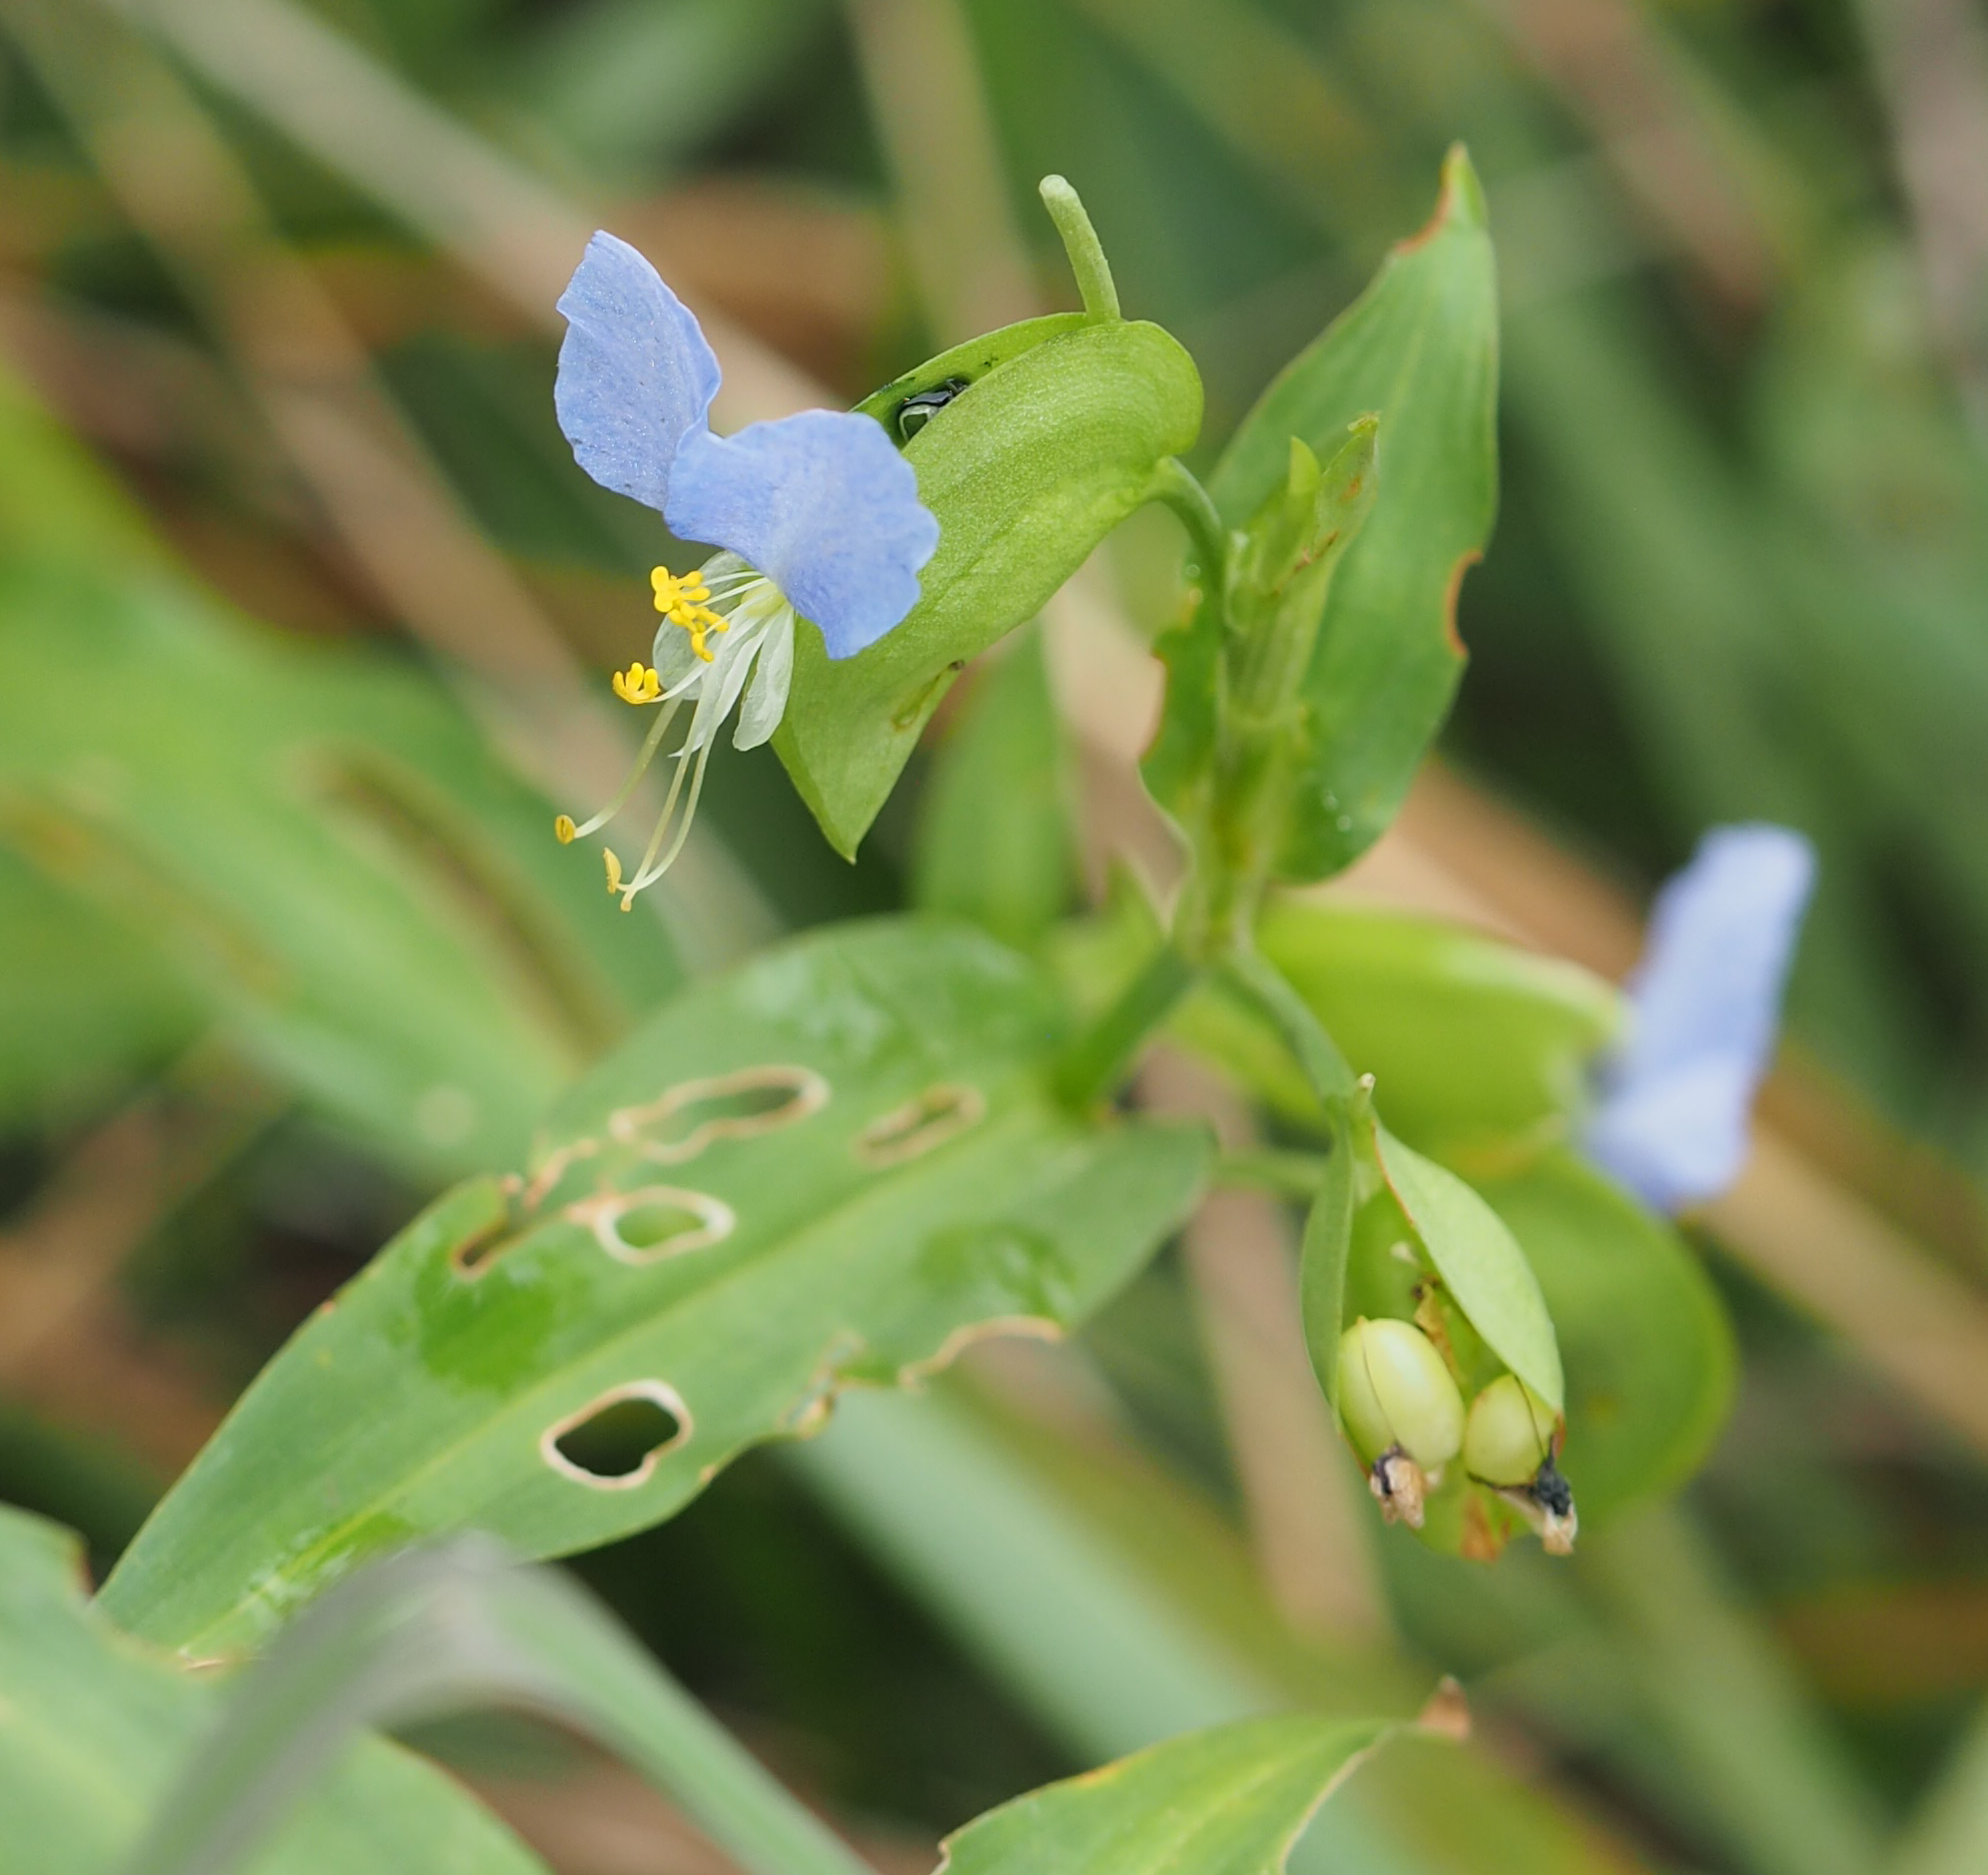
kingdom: Plantae
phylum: Tracheophyta
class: Liliopsida
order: Commelinales
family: Commelinaceae
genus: Commelina
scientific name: Commelina communis
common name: Asiatic dayflower
